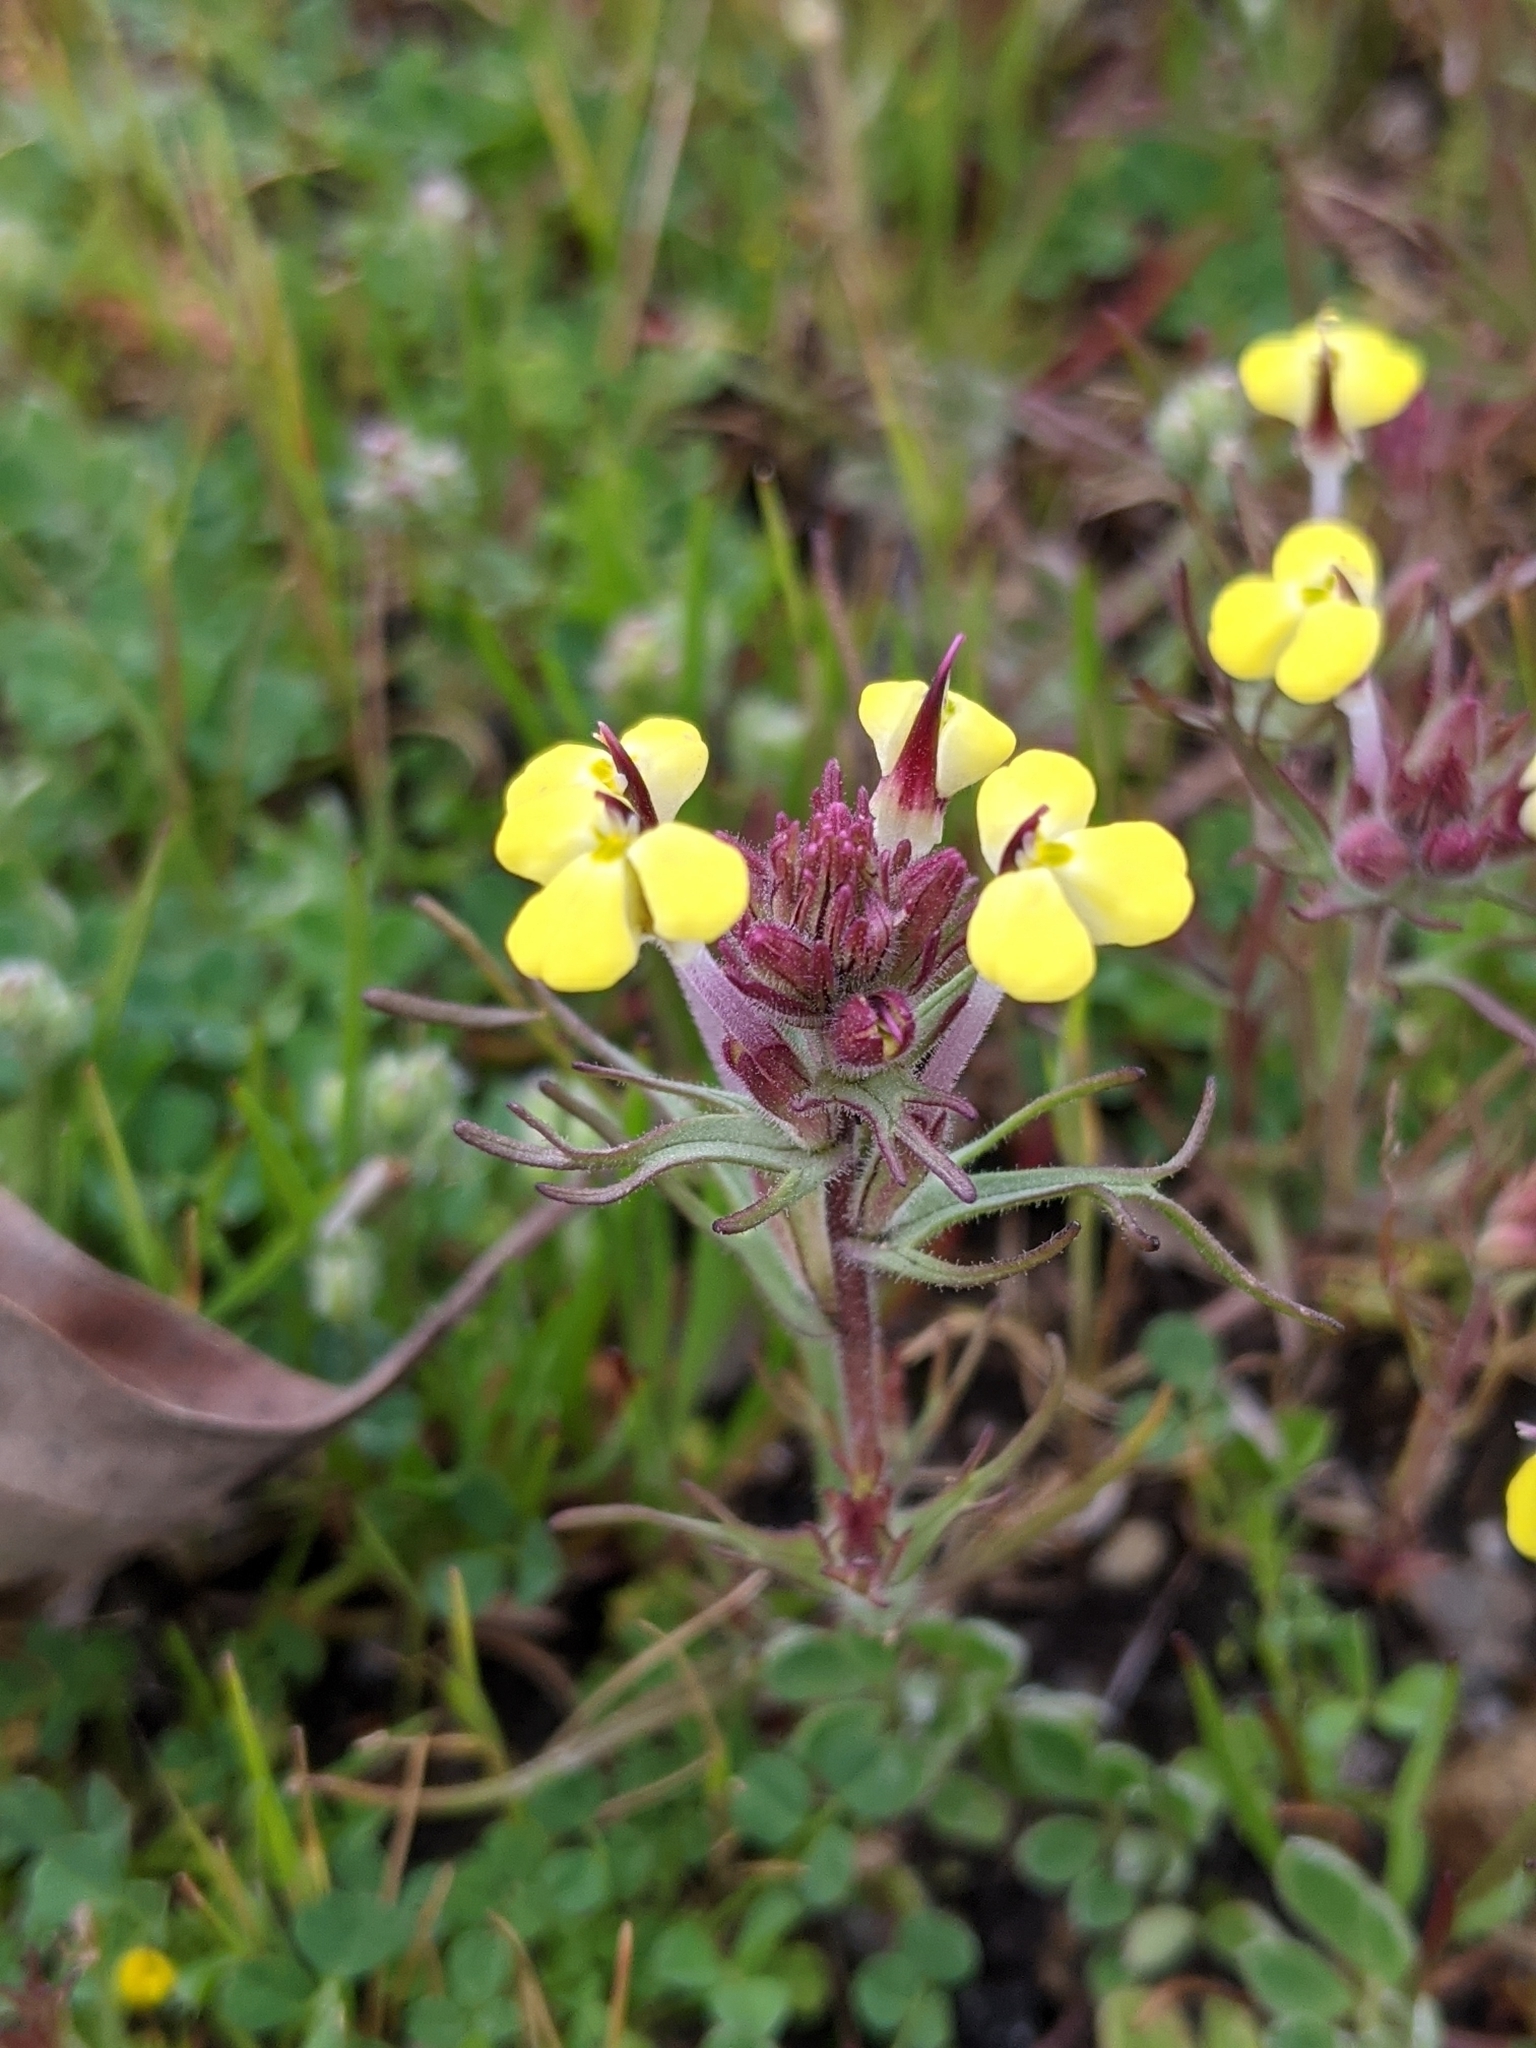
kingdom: Plantae
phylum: Tracheophyta
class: Magnoliopsida
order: Lamiales
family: Orobanchaceae
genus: Triphysaria
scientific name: Triphysaria eriantha
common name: Johnny-tuck
